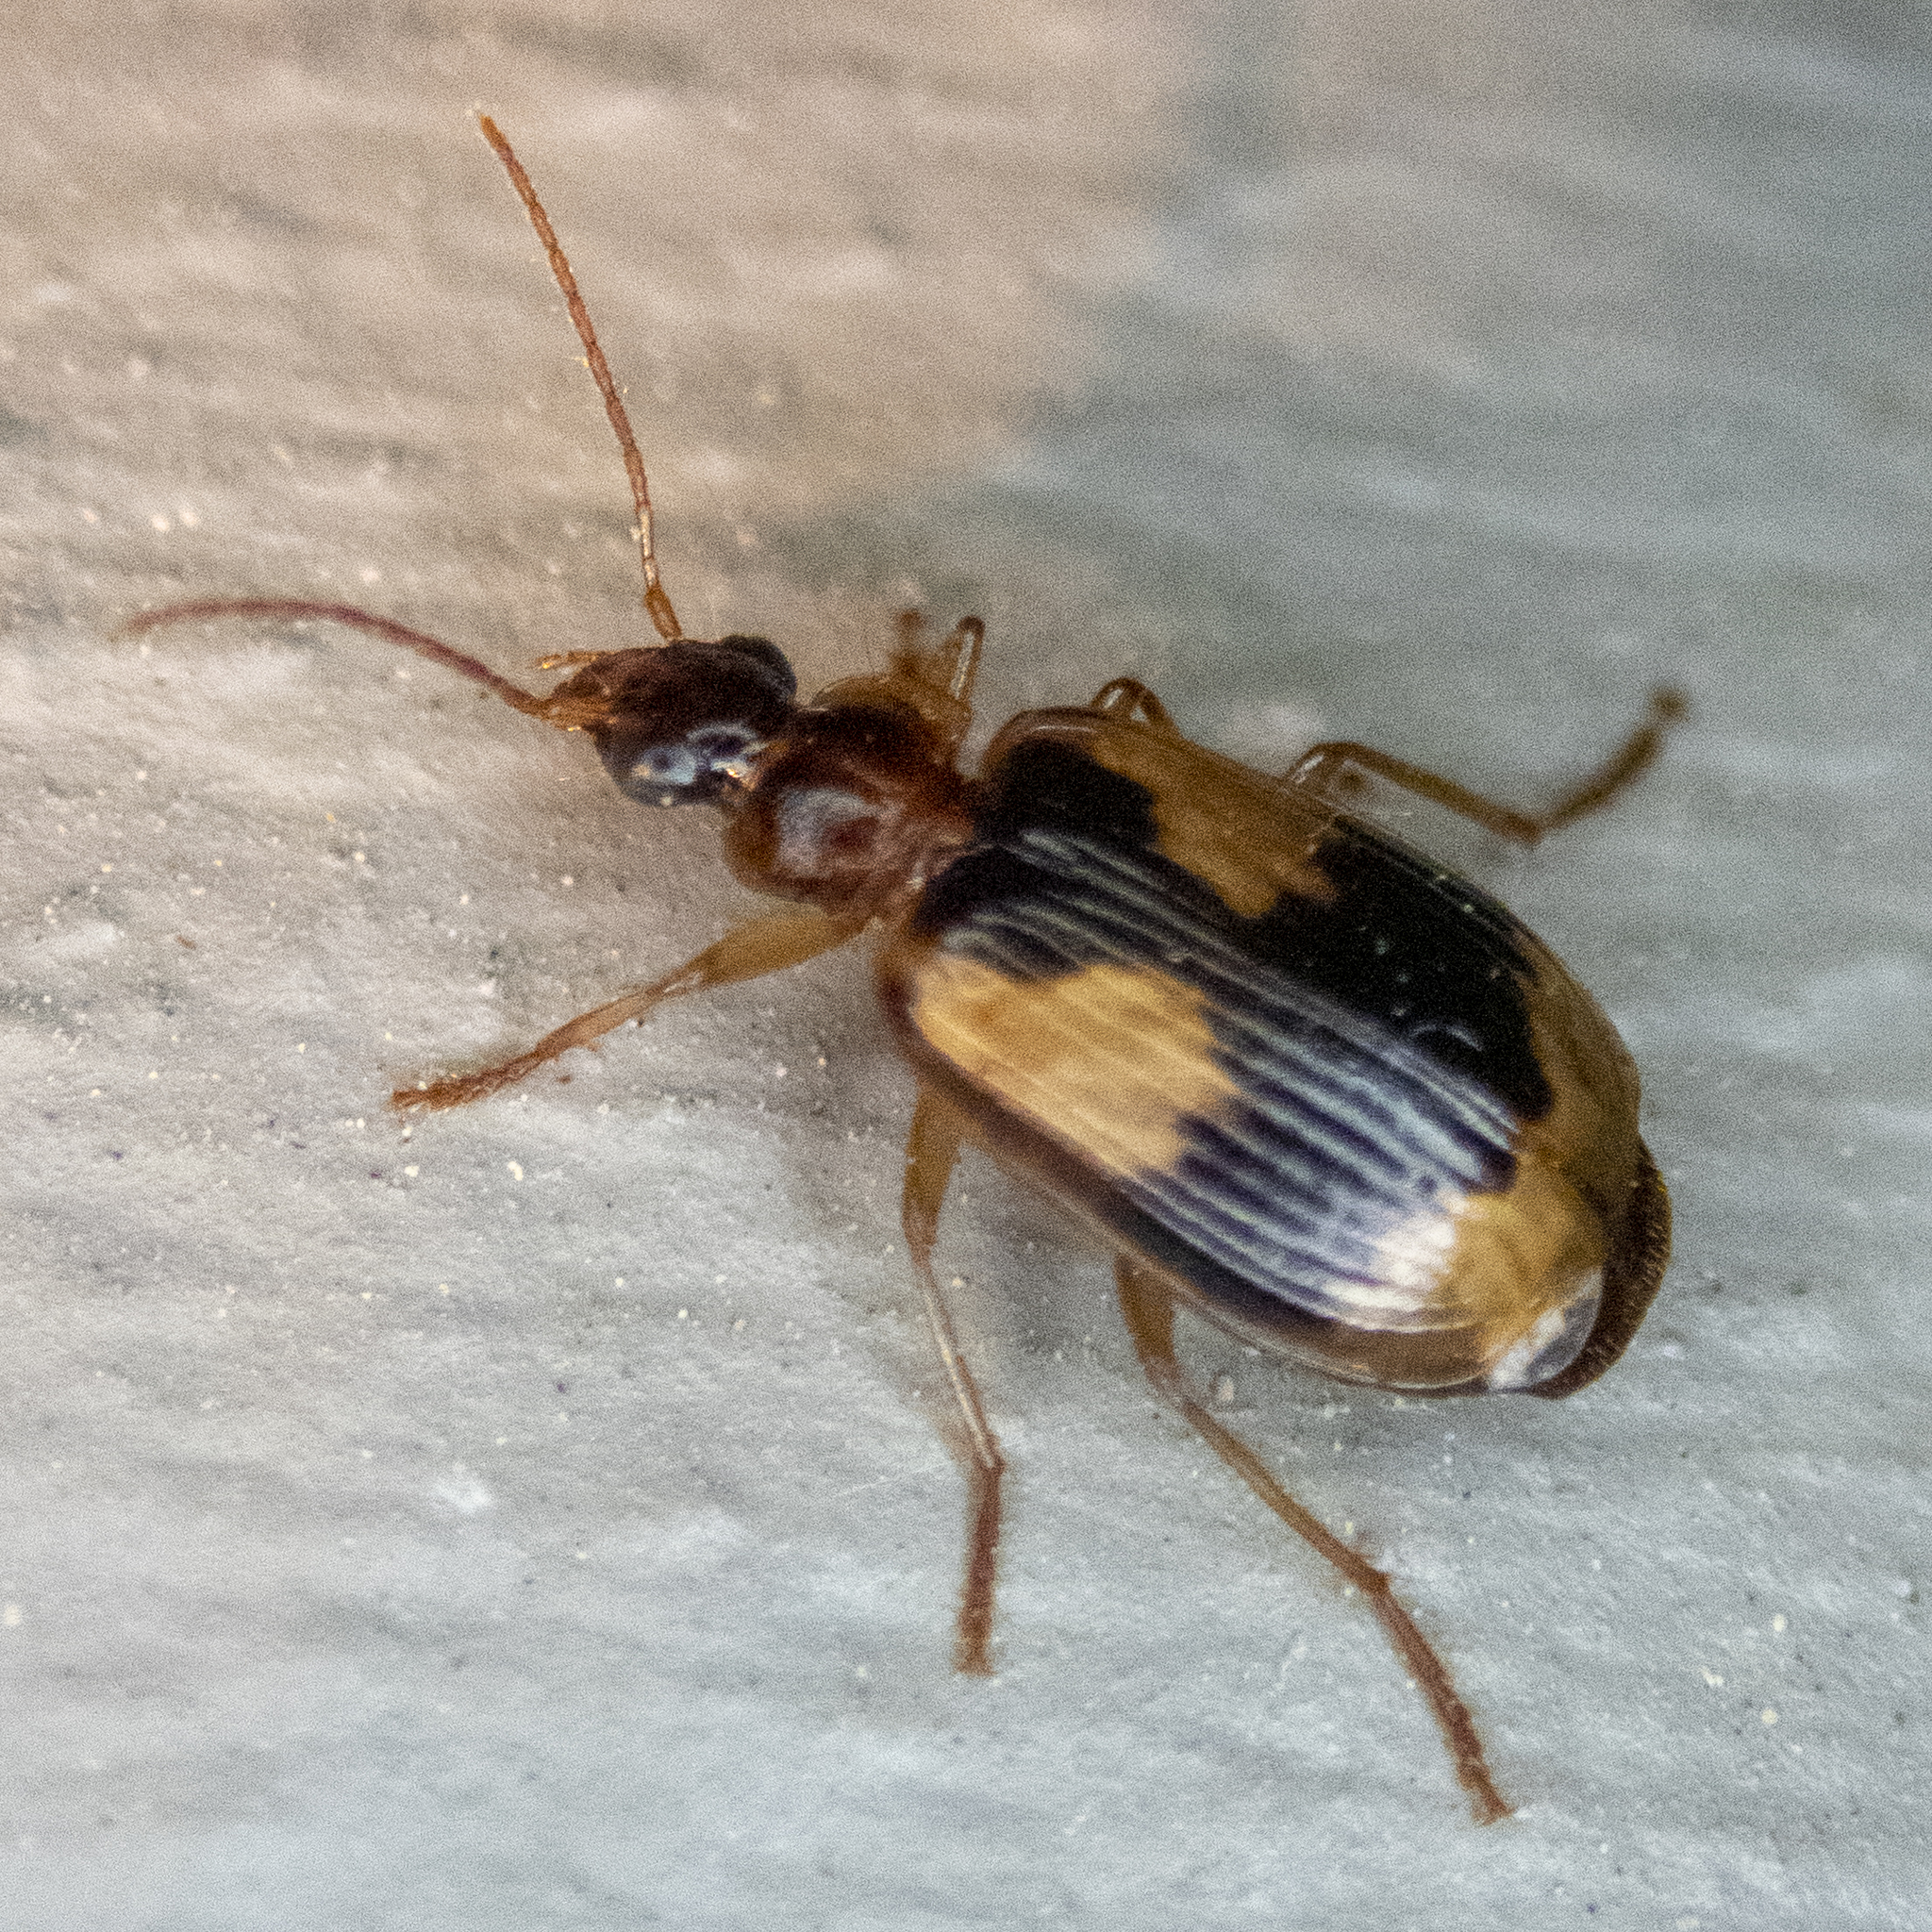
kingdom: Animalia
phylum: Arthropoda
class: Insecta
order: Coleoptera
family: Carabidae
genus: Lebia
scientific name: Lebia fuscata
